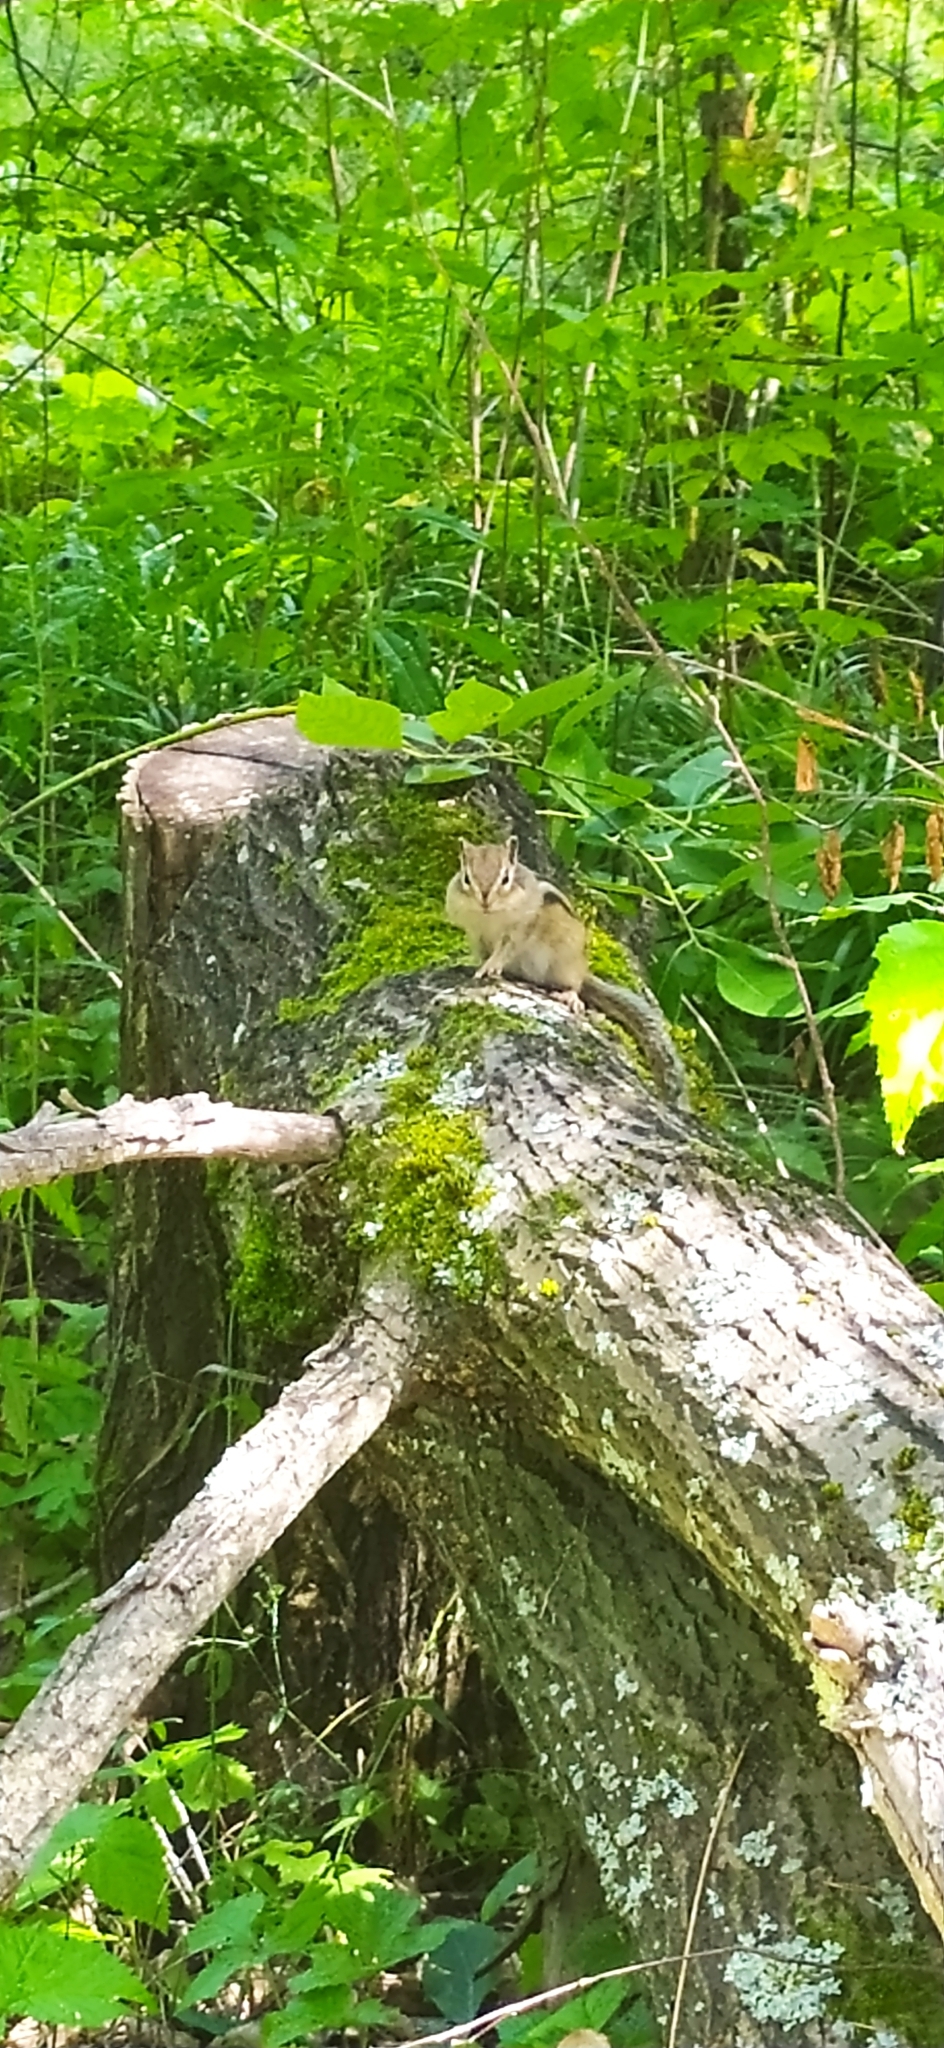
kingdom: Animalia
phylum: Chordata
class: Mammalia
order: Rodentia
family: Sciuridae
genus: Tamias
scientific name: Tamias sibiricus
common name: Siberian chipmunk
